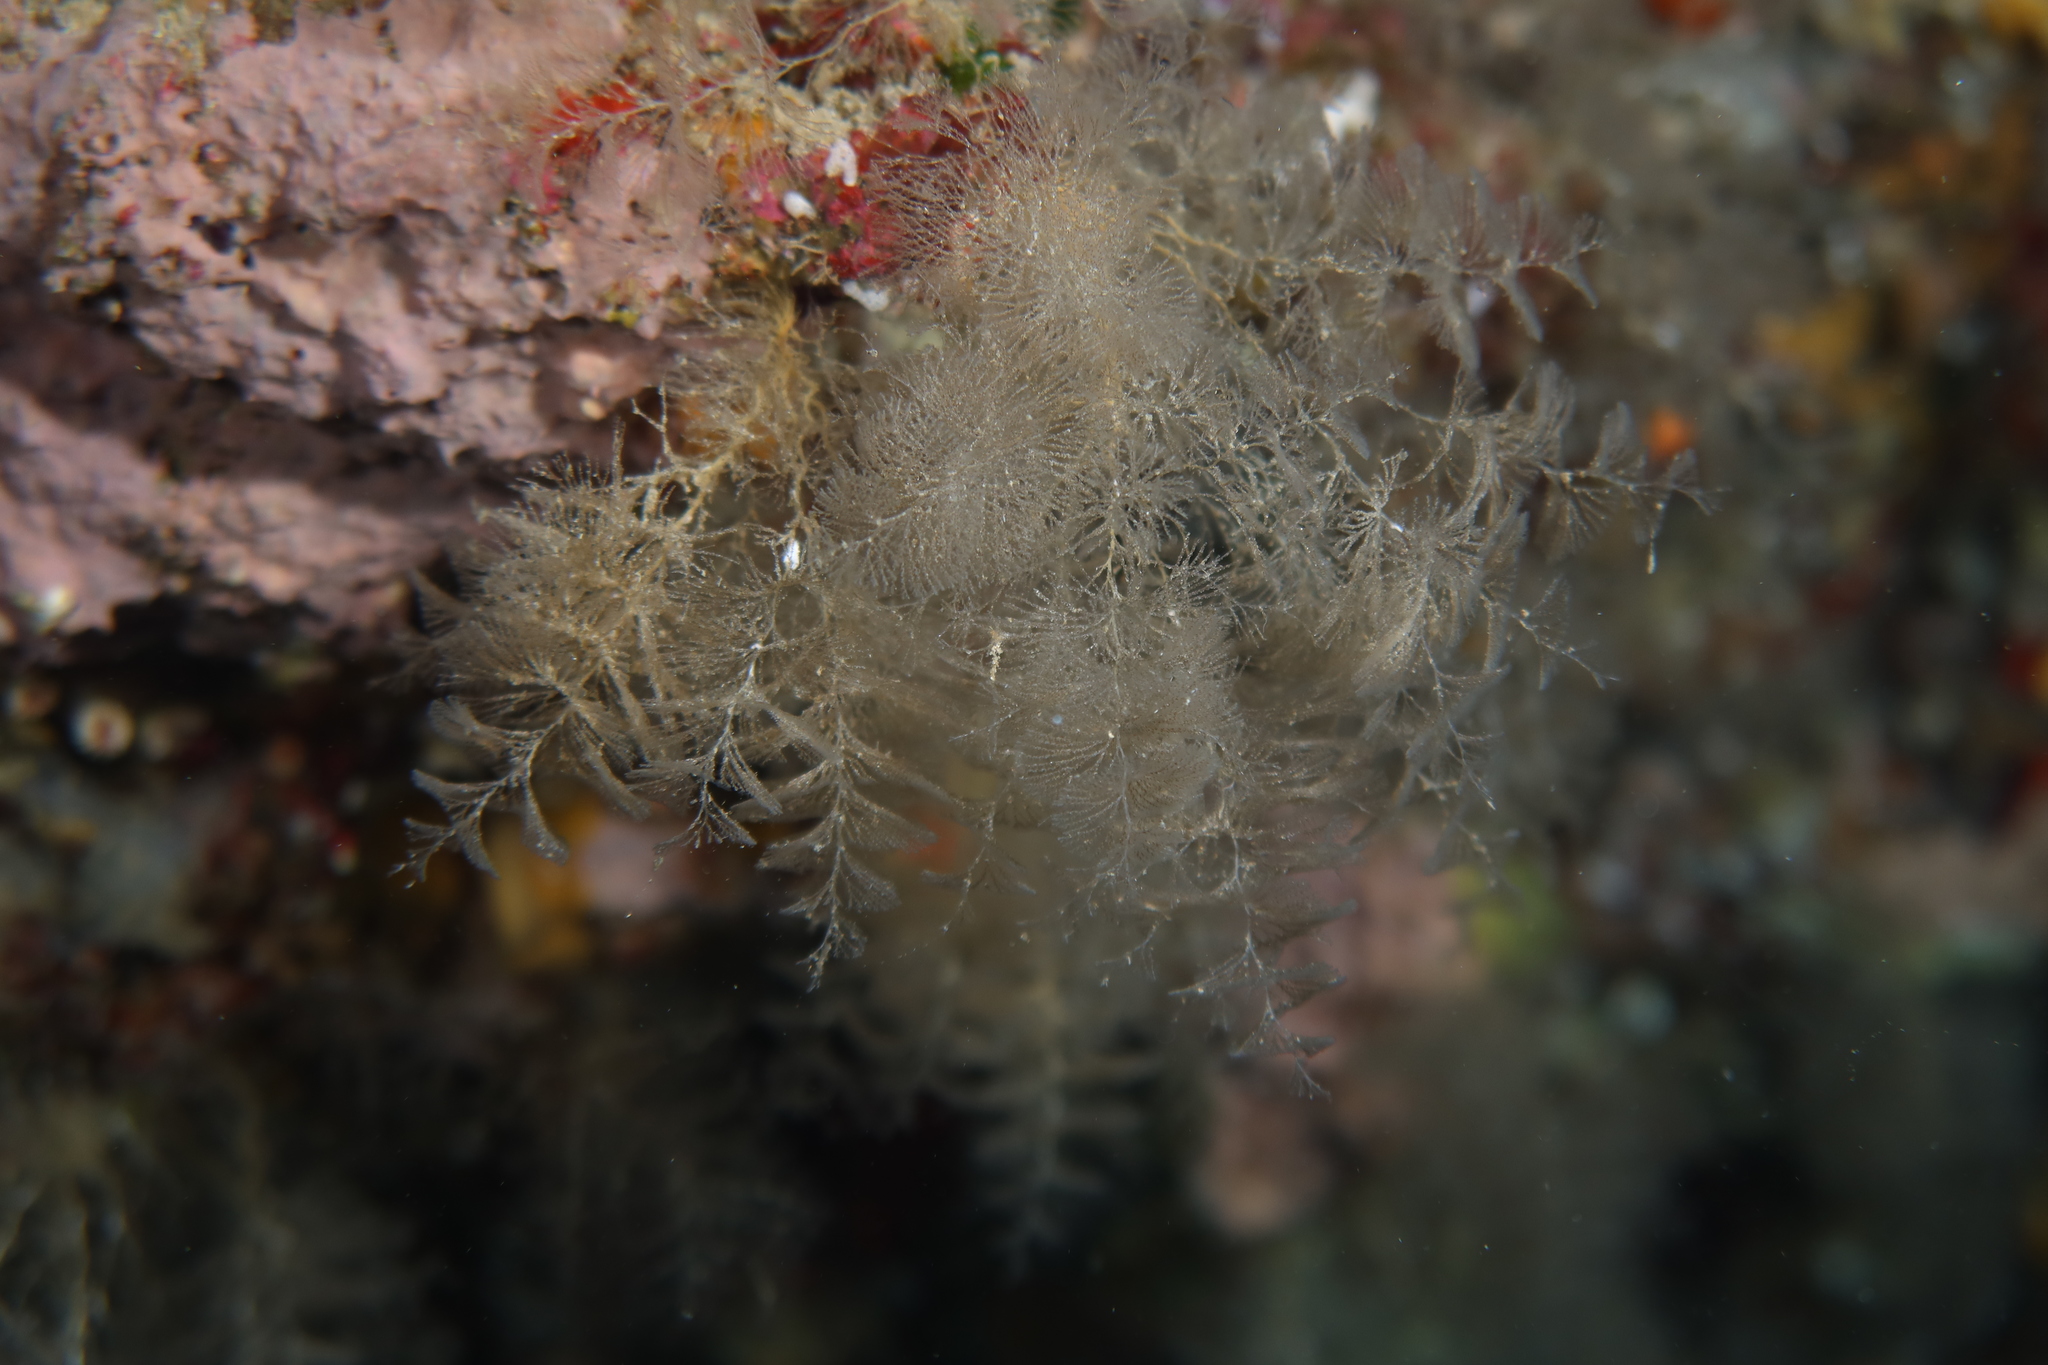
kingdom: Animalia
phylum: Bryozoa
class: Gymnolaemata
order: Cheilostomatida
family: Bugulidae
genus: Crisularia
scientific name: Crisularia plumosa
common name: Feather bryozoan
